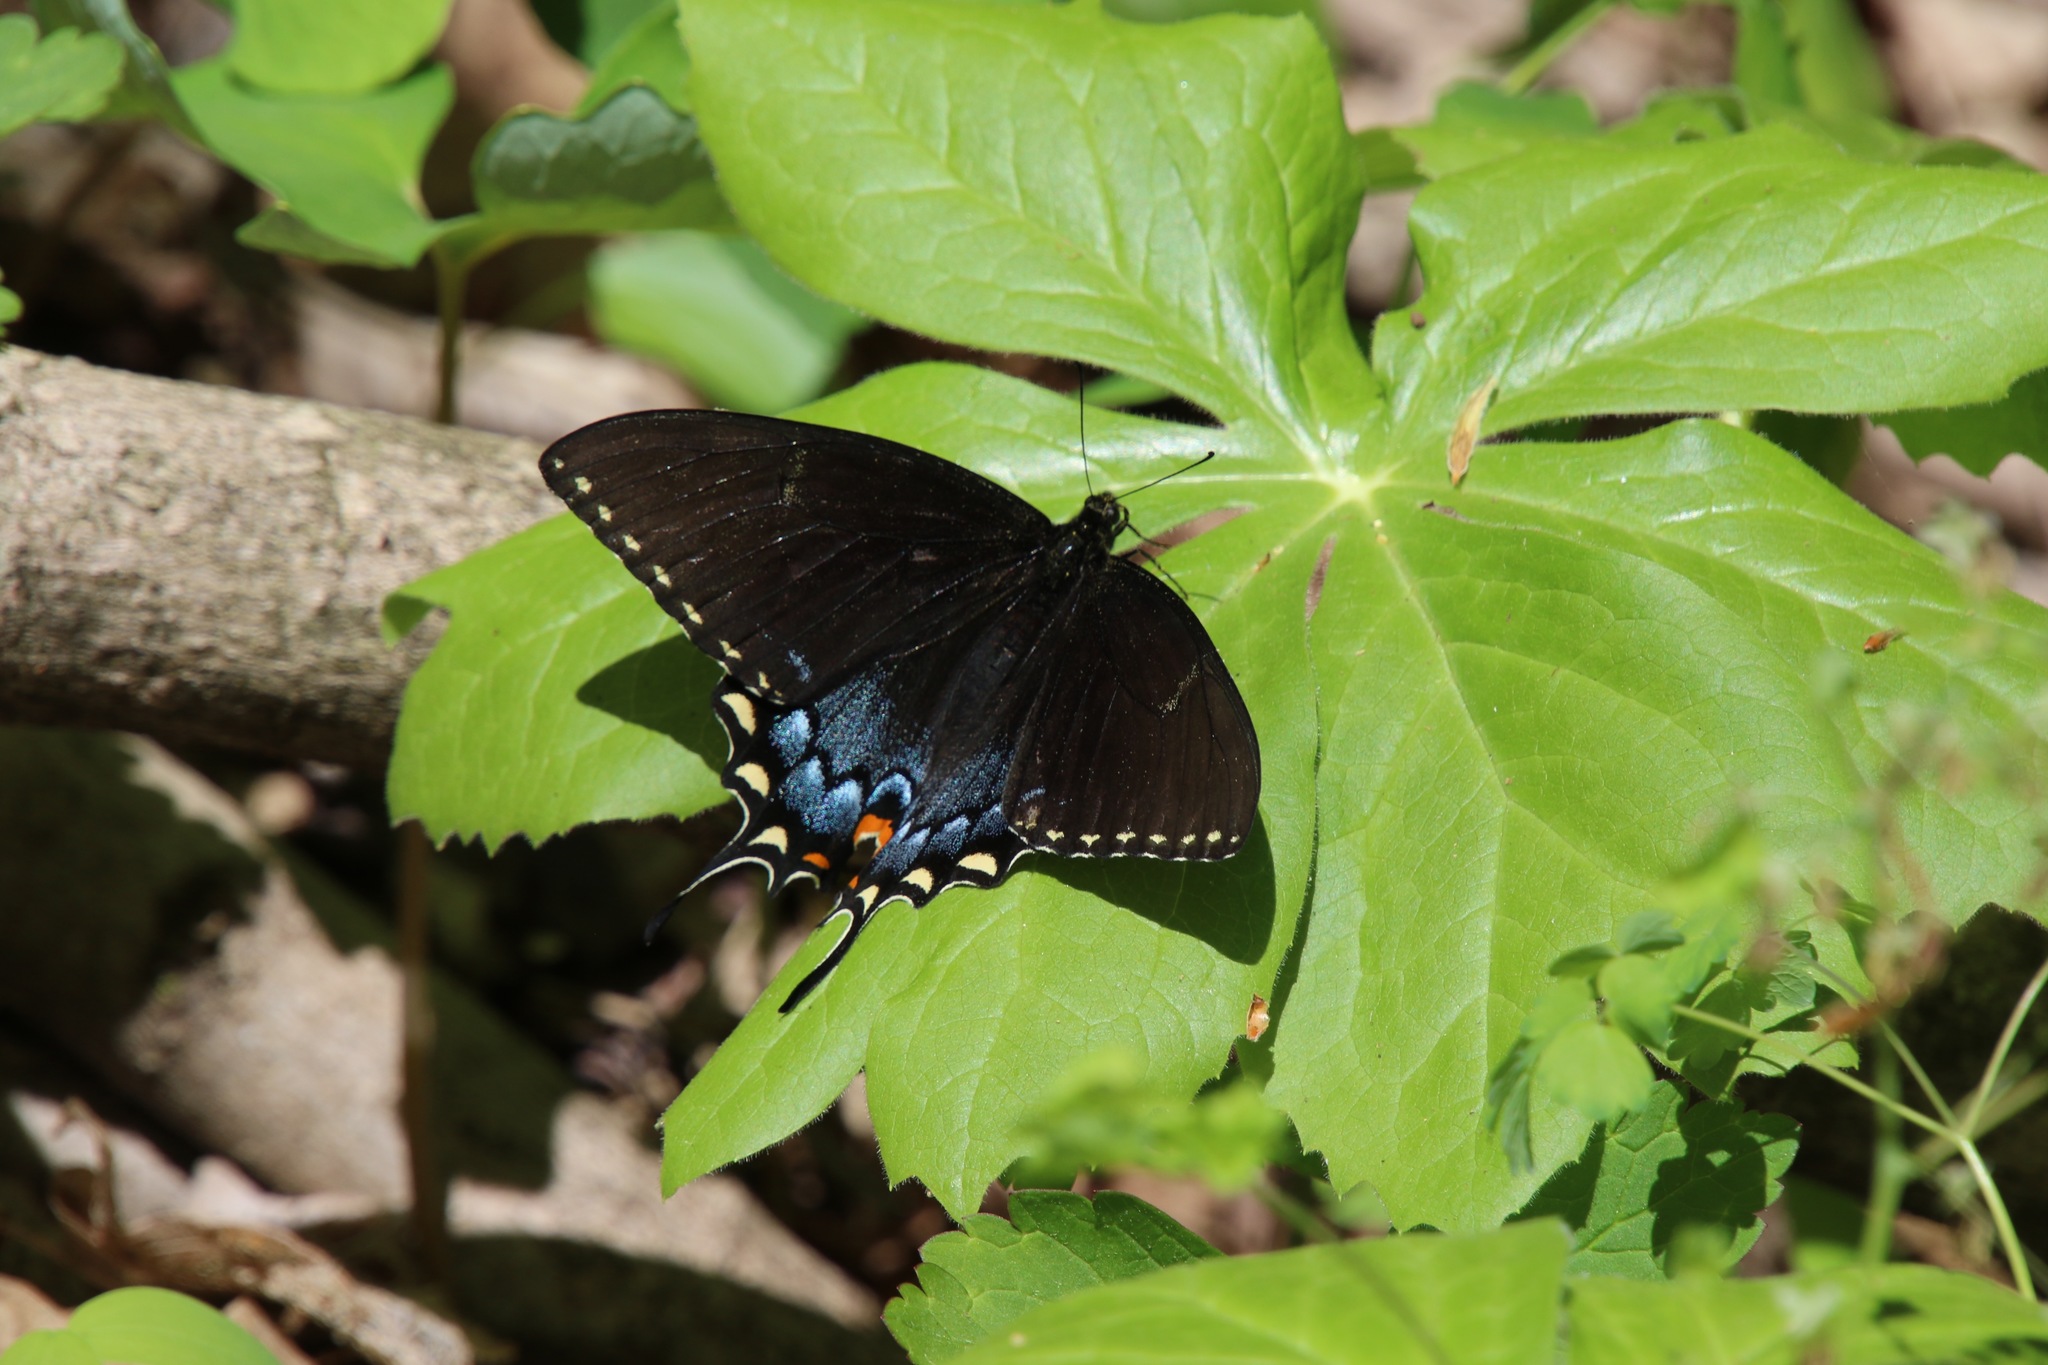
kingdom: Animalia
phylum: Arthropoda
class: Insecta
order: Lepidoptera
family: Papilionidae
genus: Papilio
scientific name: Papilio glaucus
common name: Tiger swallowtail
